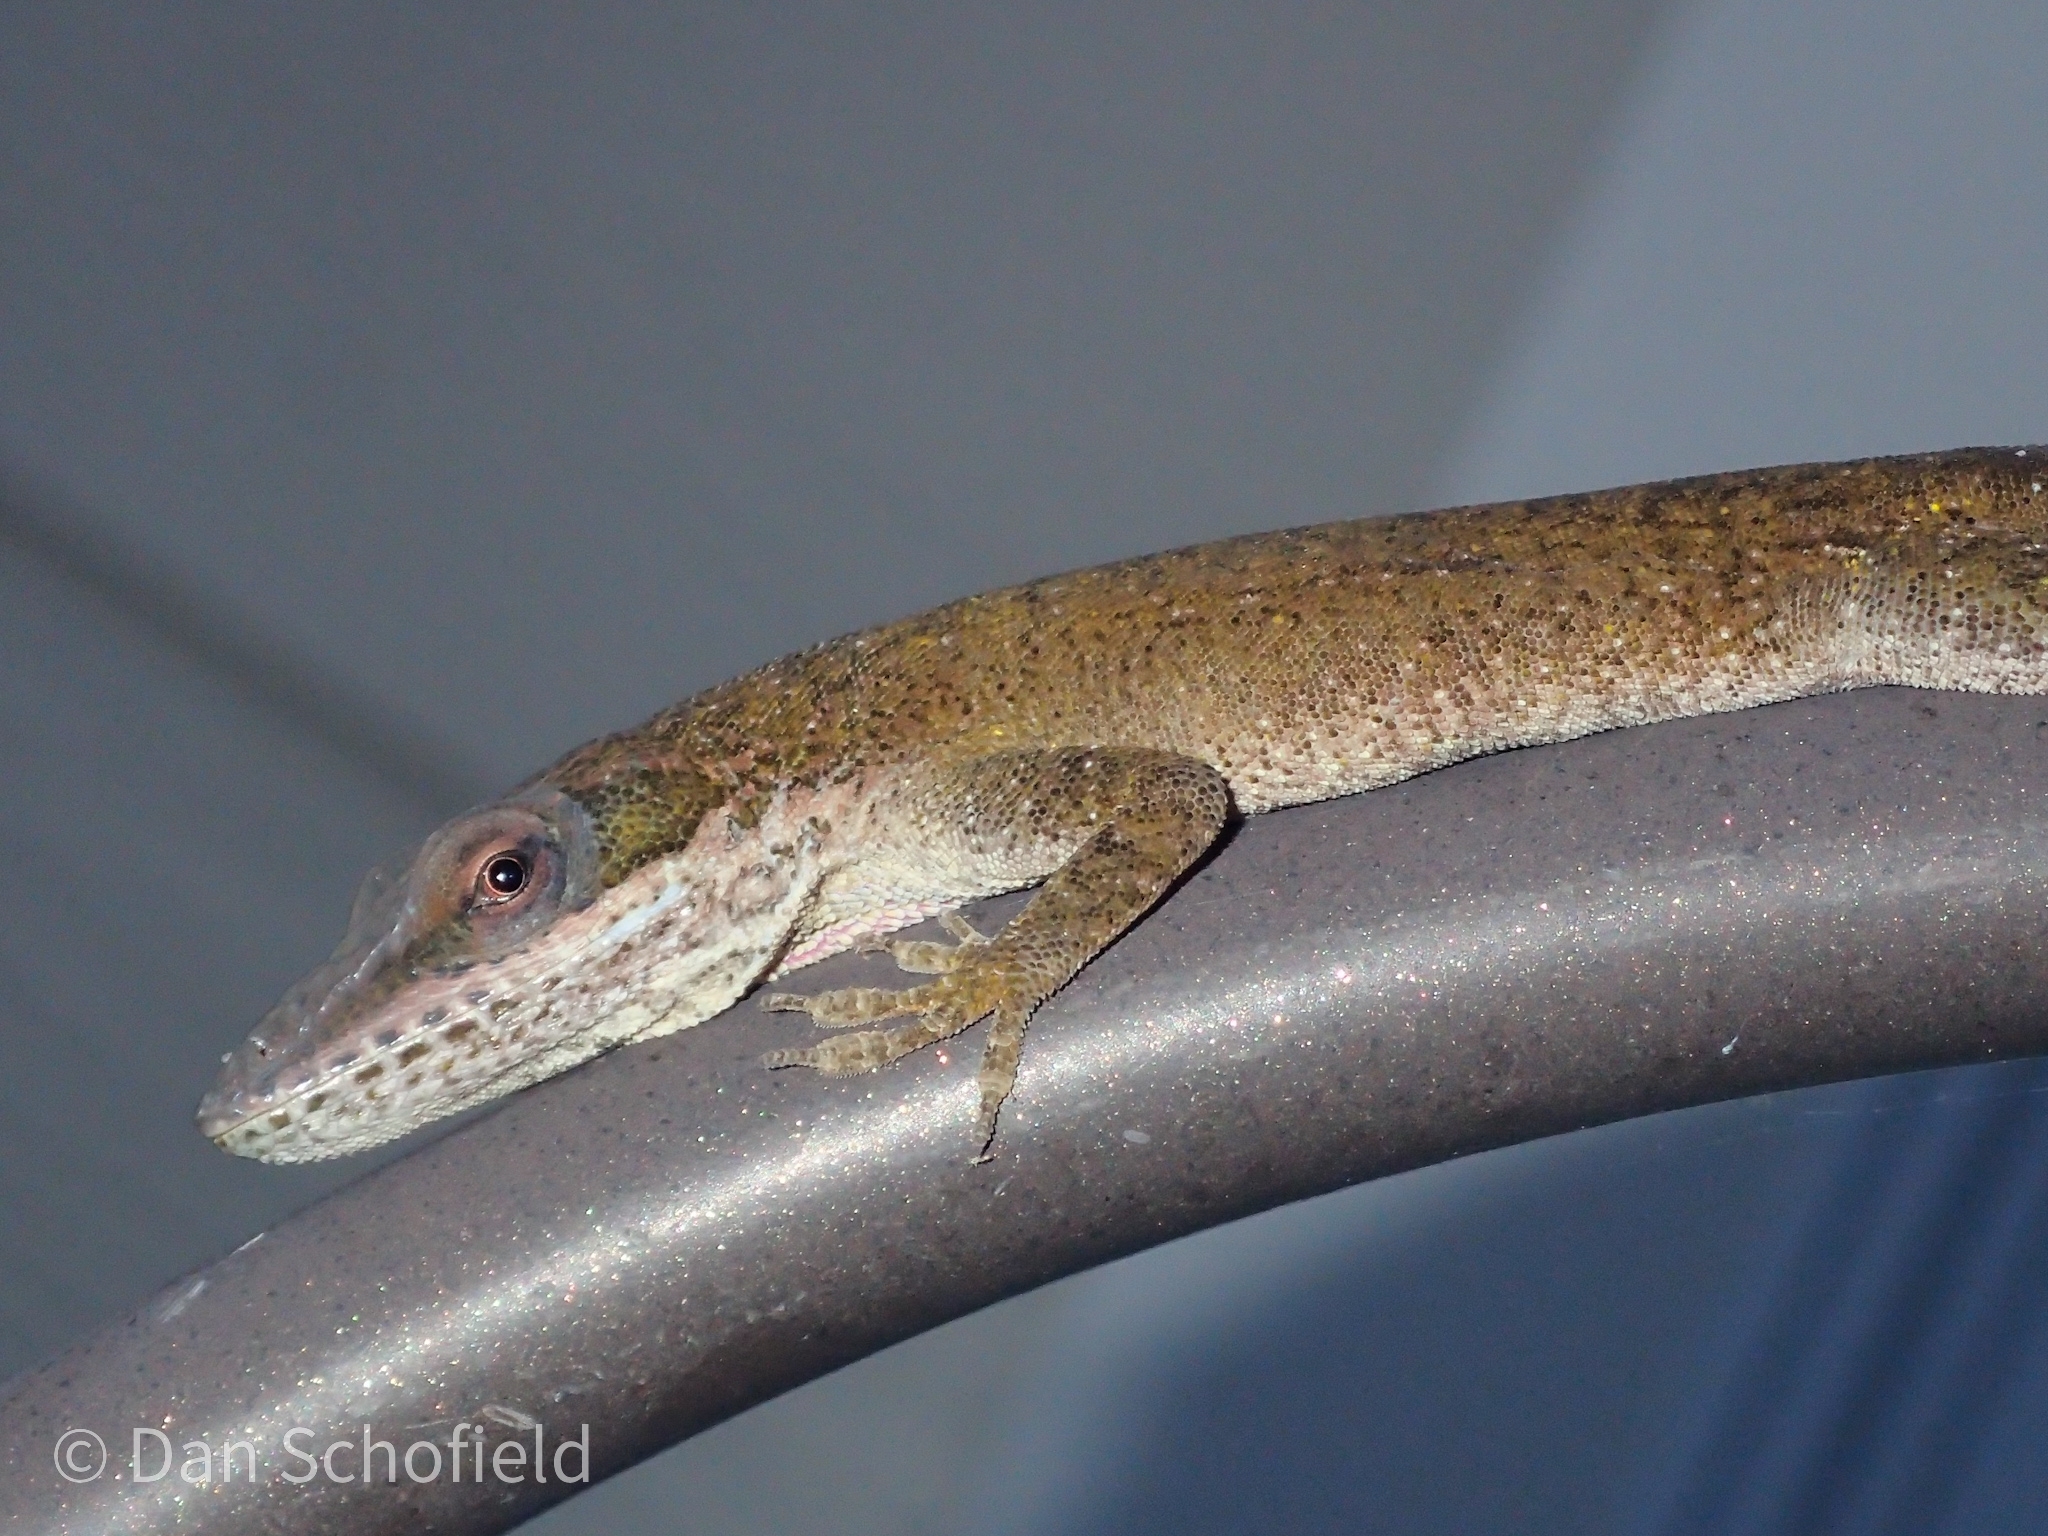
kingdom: Animalia
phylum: Chordata
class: Squamata
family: Dactyloidae
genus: Anolis
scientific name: Anolis carolinensis
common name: Green anole
